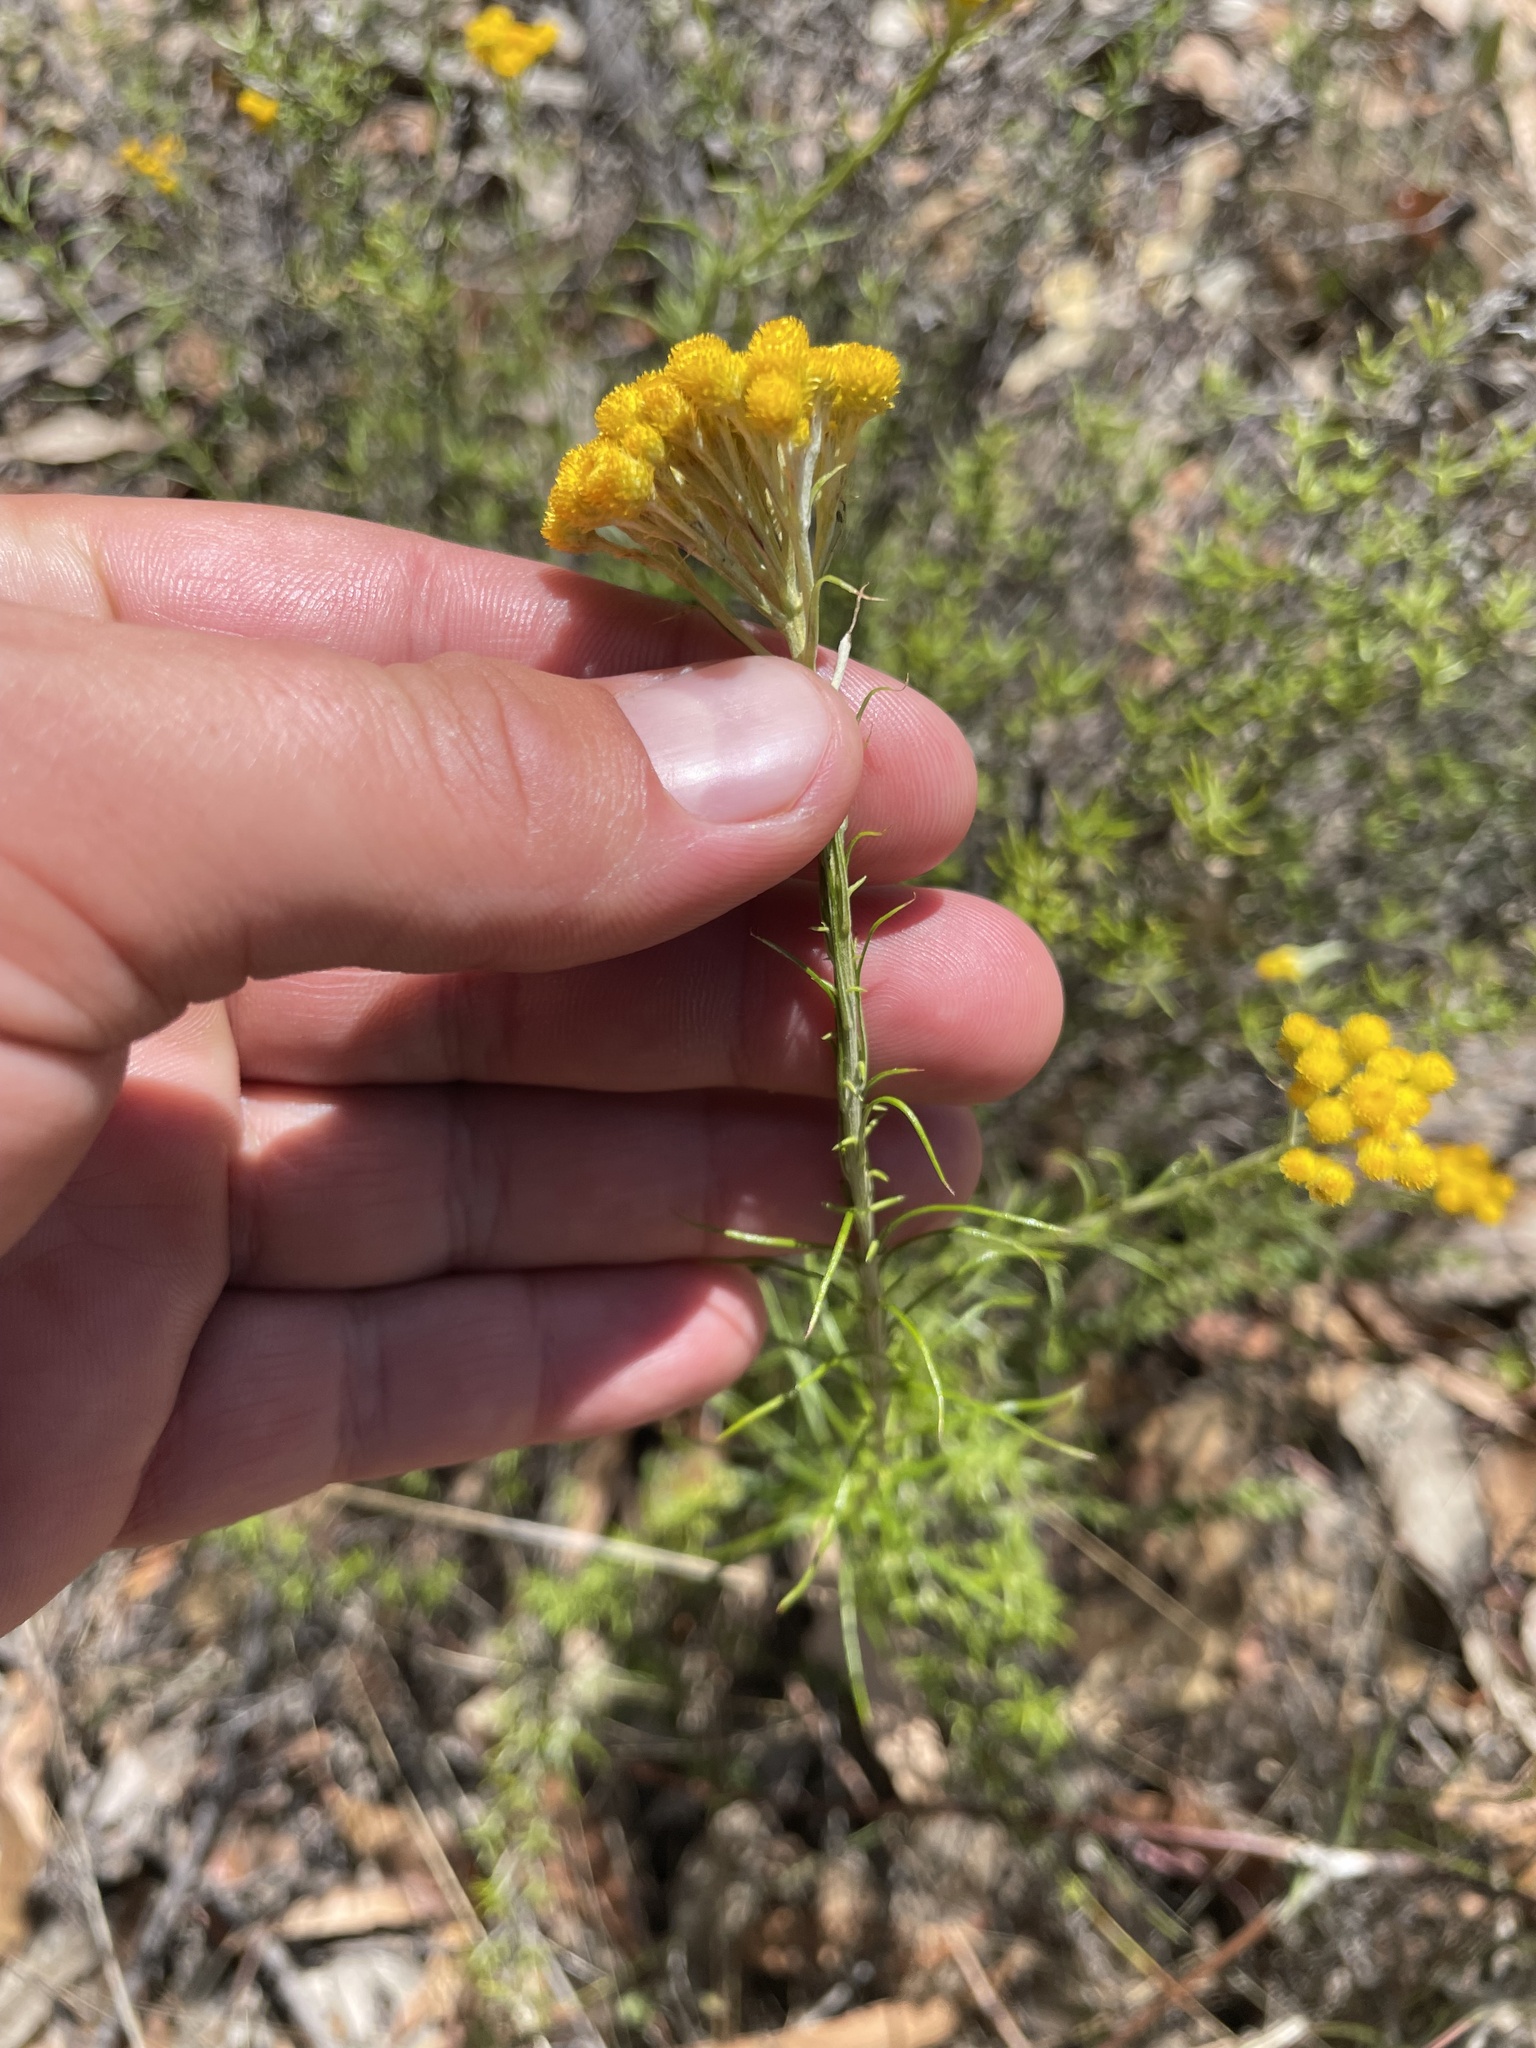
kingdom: Plantae
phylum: Tracheophyta
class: Magnoliopsida
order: Asterales
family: Asteraceae
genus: Chrysocephalum
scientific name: Chrysocephalum semipapposum
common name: Clustered everlasting
